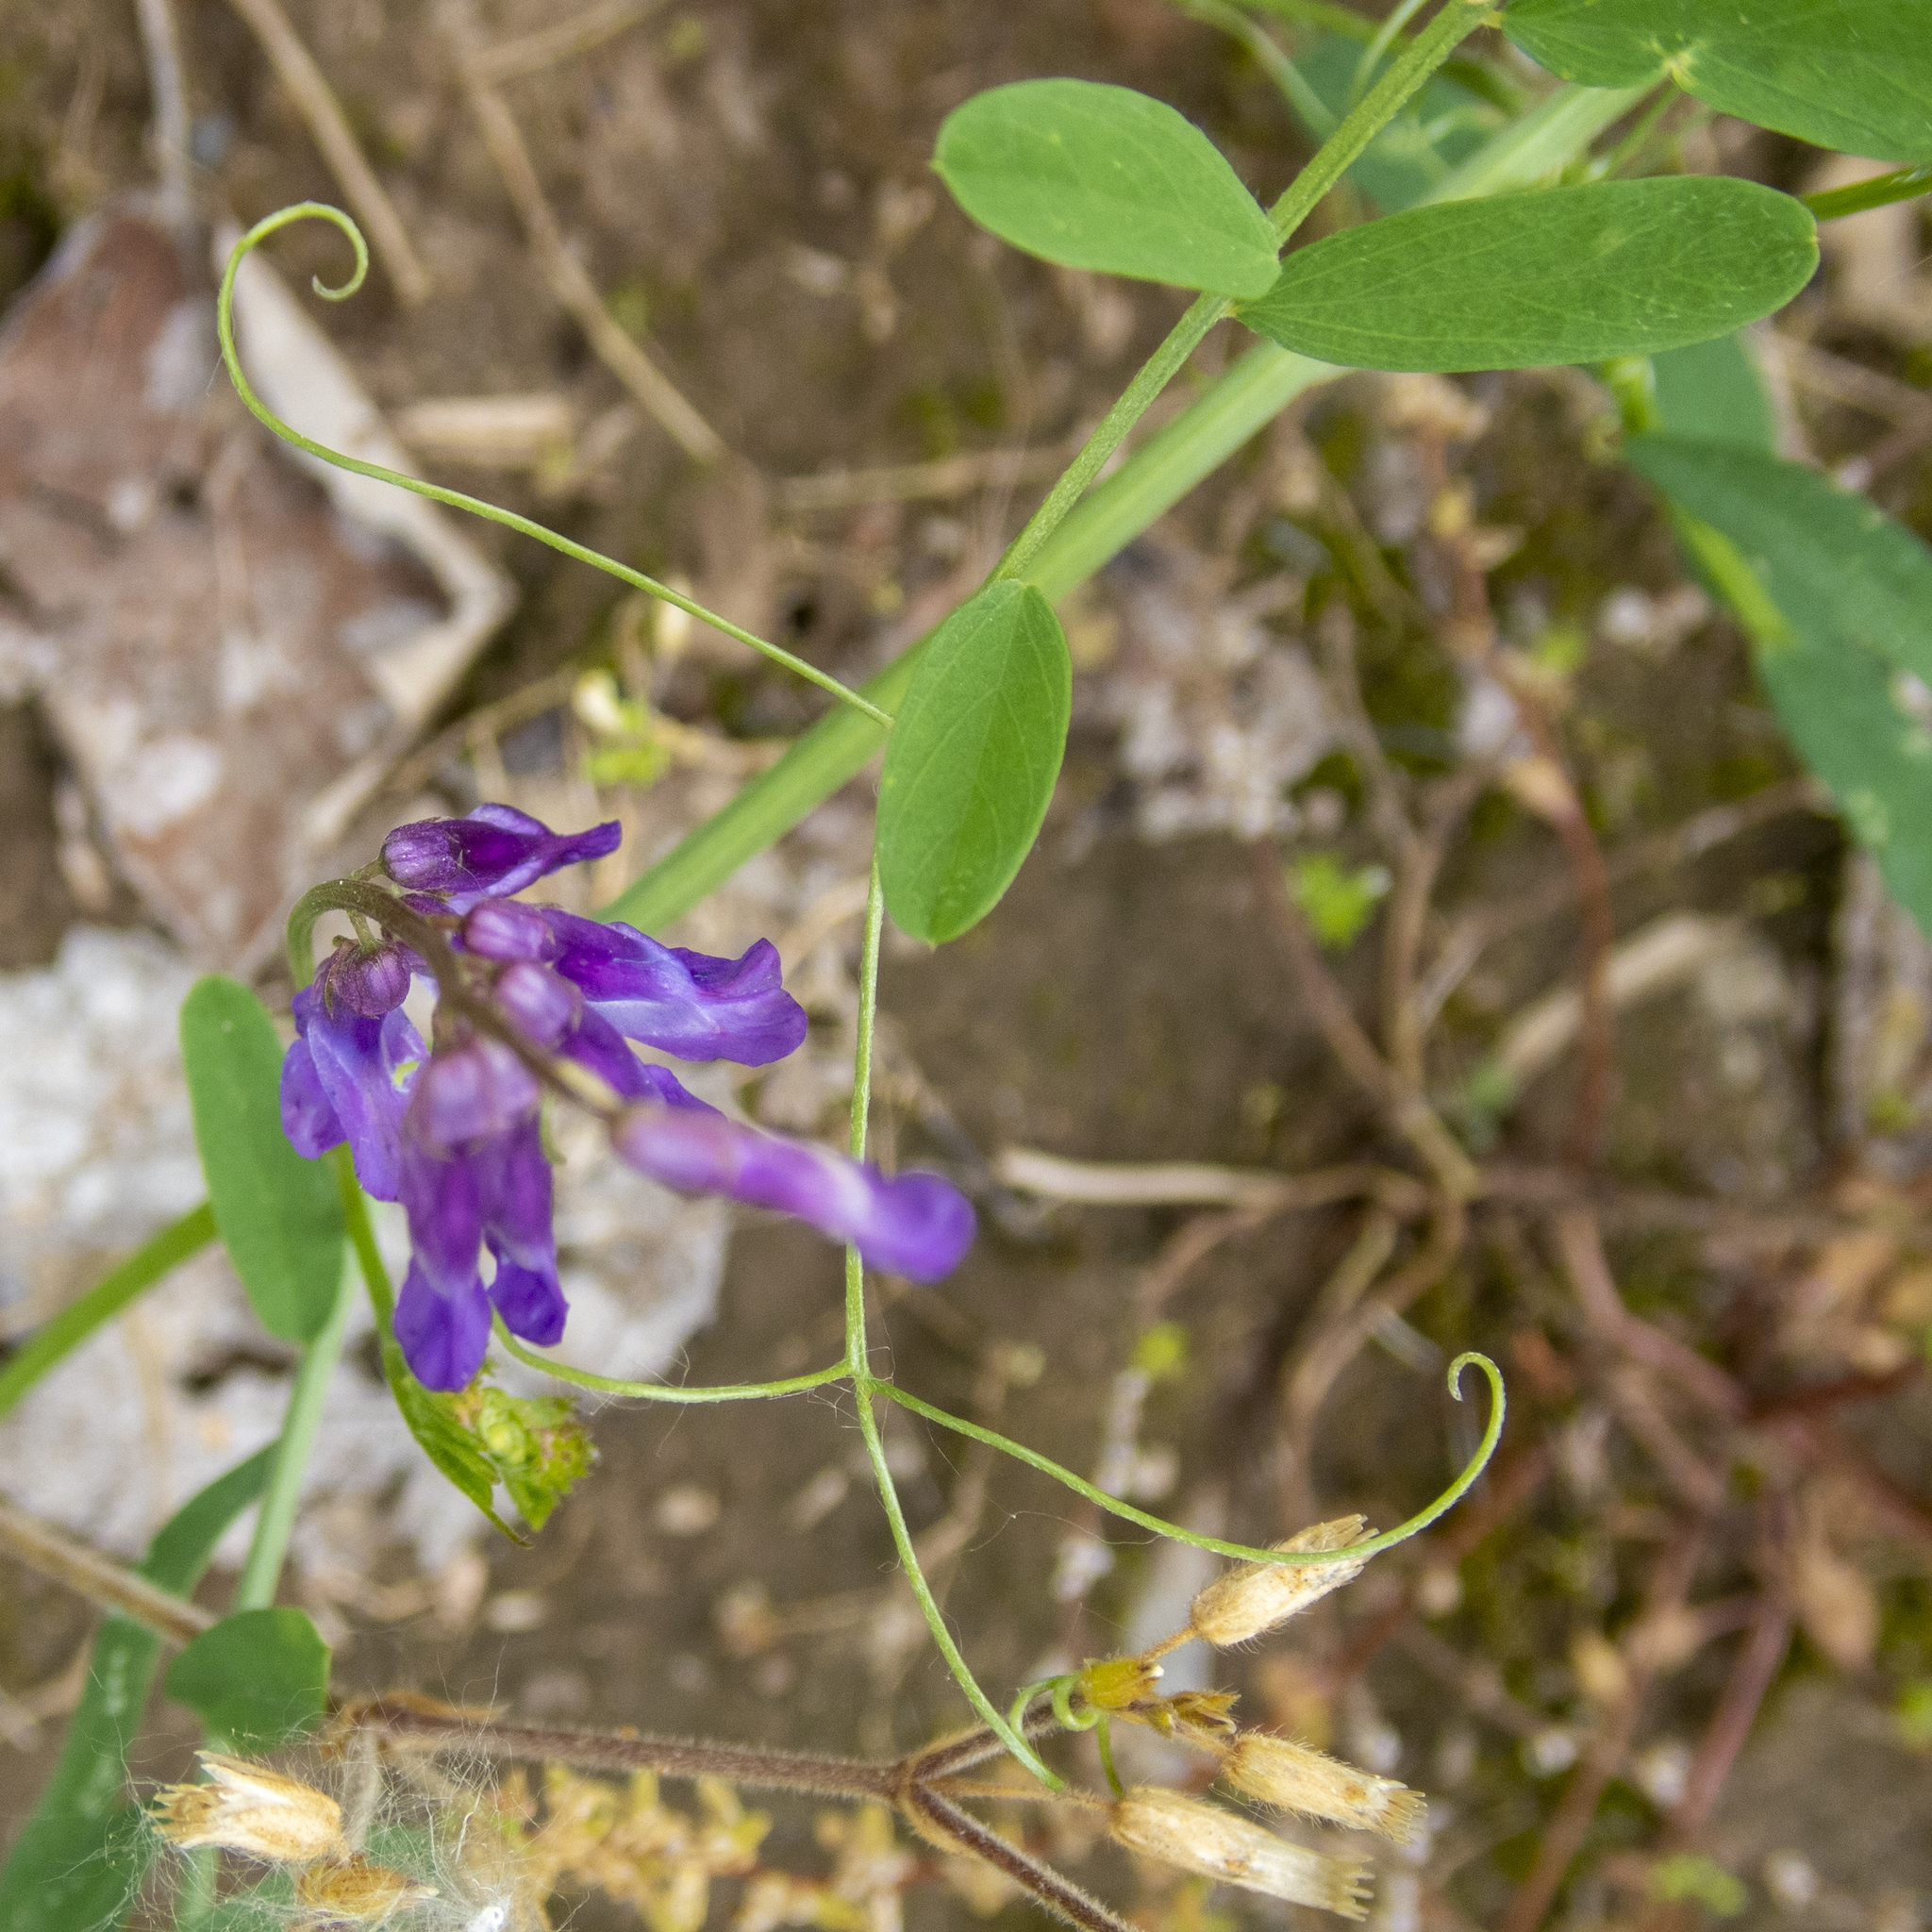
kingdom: Plantae
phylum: Tracheophyta
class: Magnoliopsida
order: Fabales
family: Fabaceae
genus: Vicia
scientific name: Vicia villosa
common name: Fodder vetch
